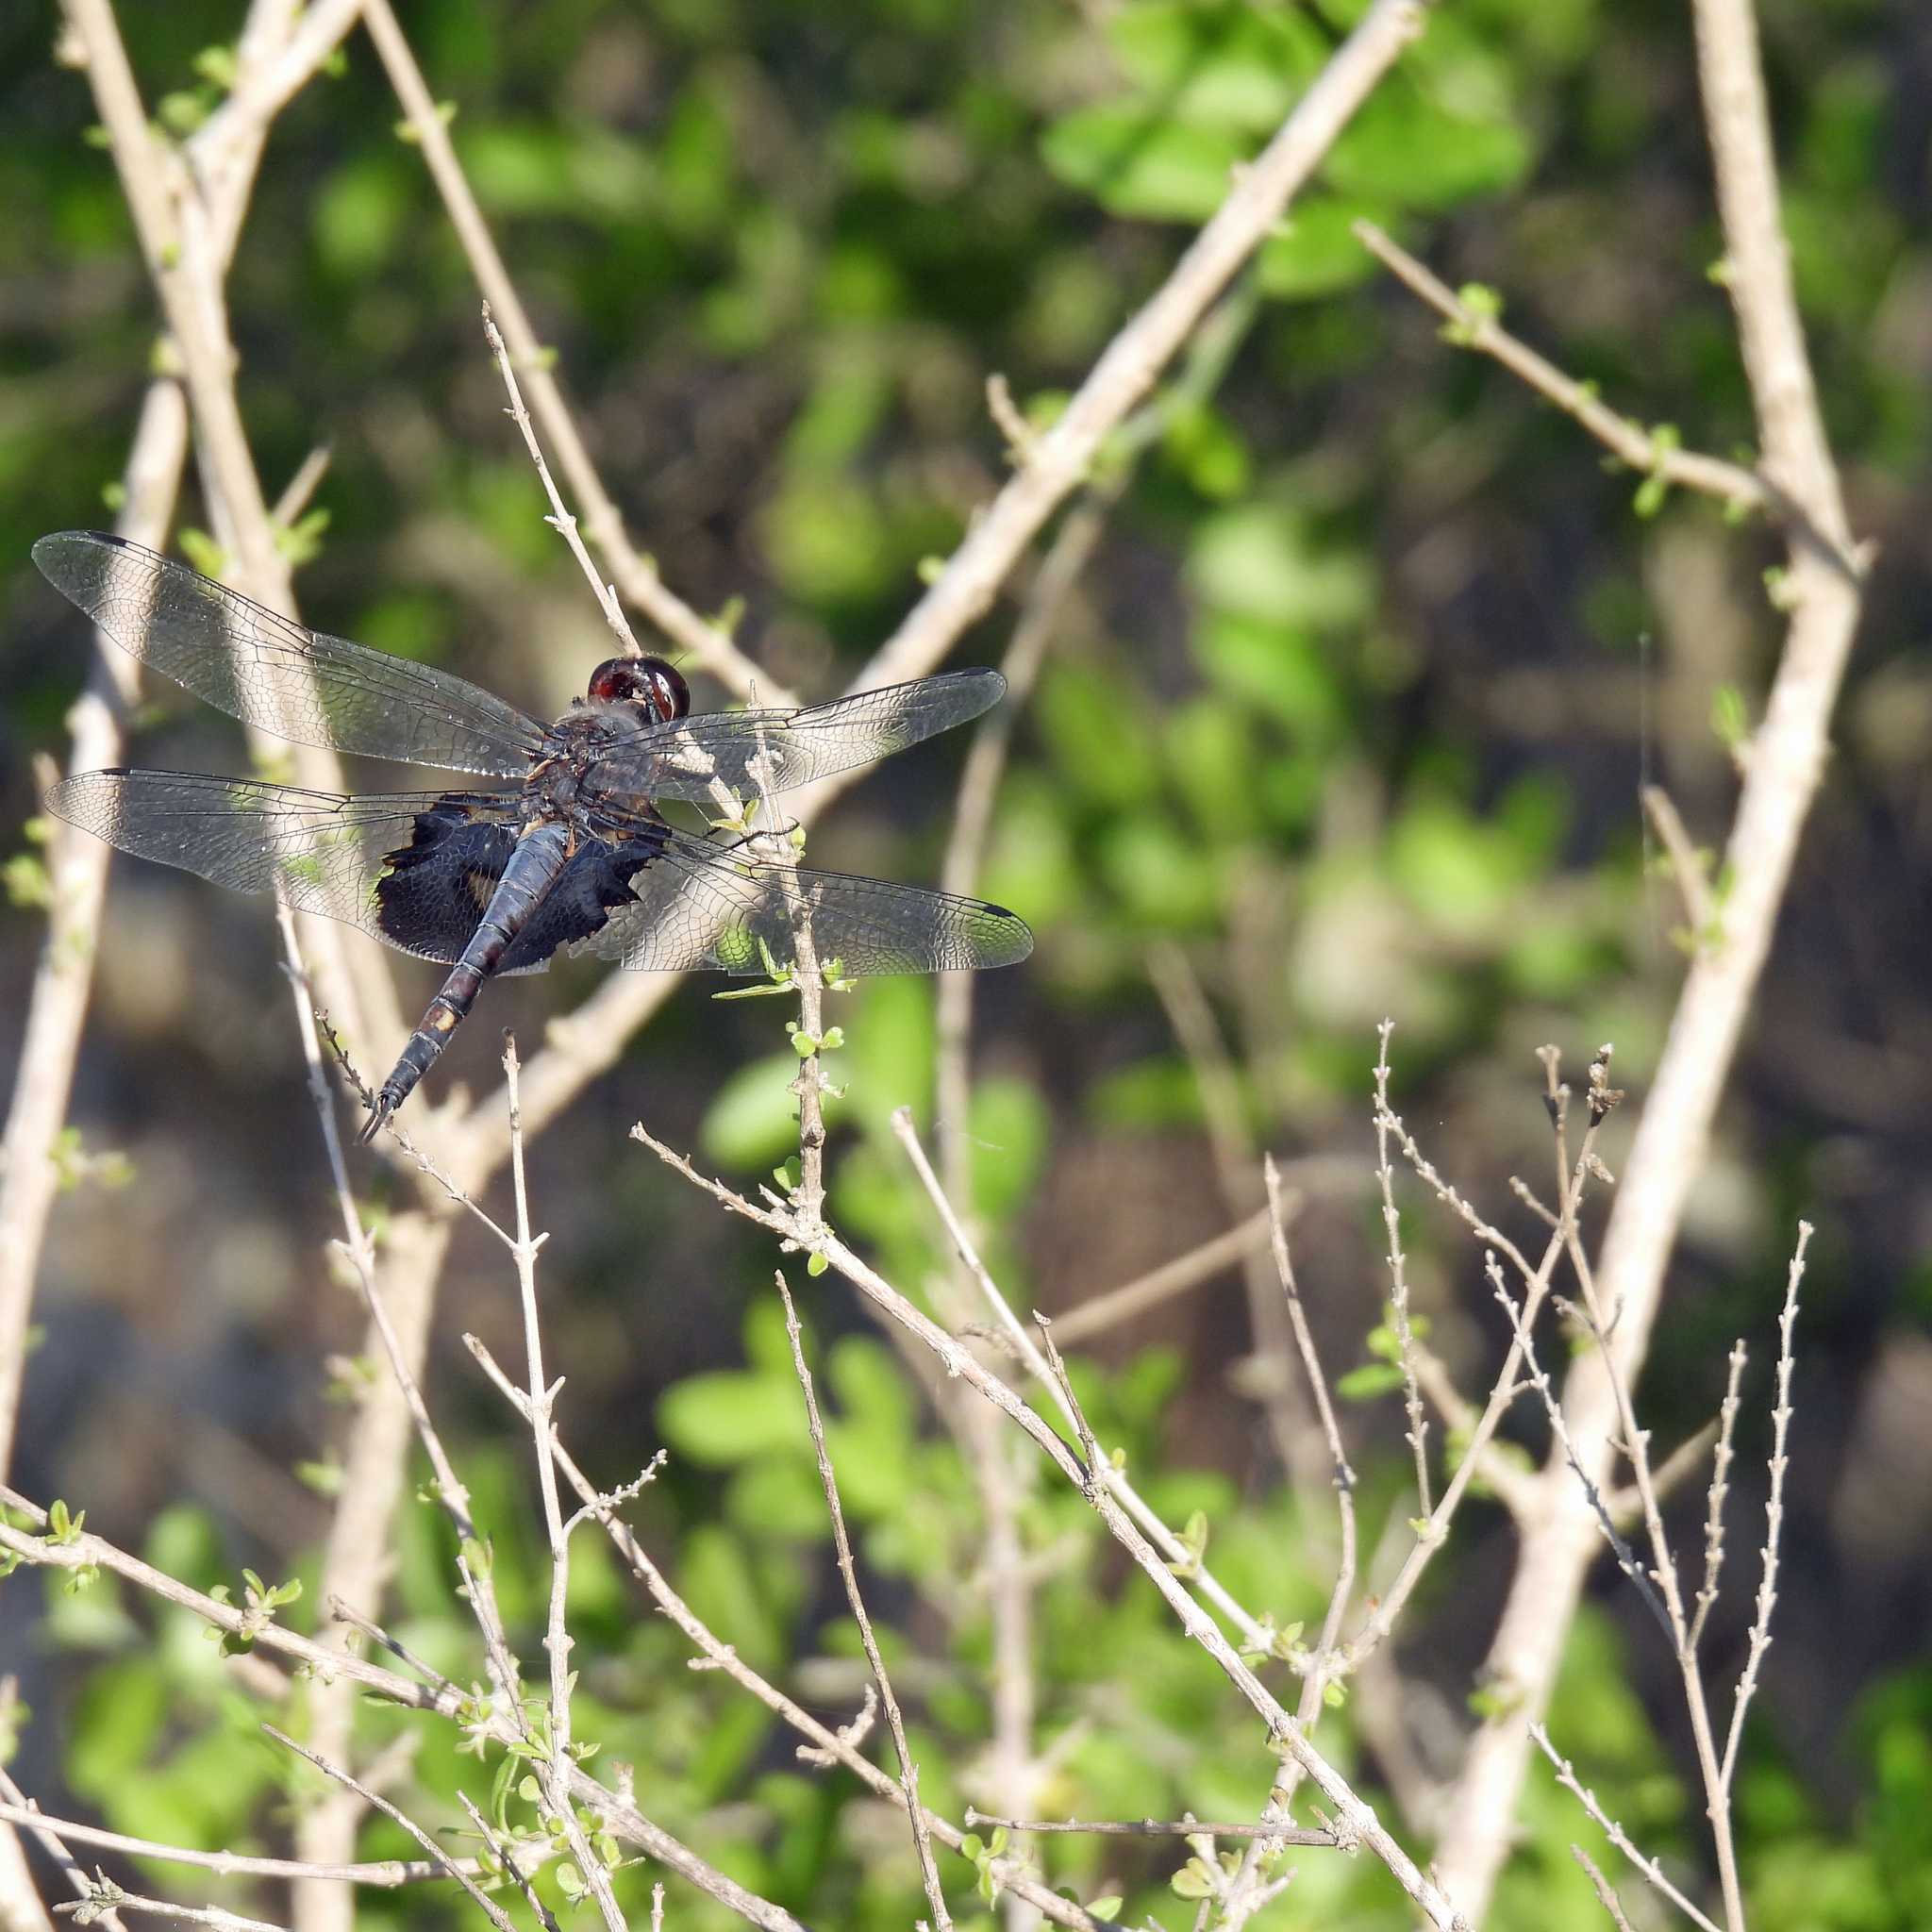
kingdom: Animalia
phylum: Arthropoda
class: Insecta
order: Odonata
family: Libellulidae
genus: Tramea
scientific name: Tramea lacerata
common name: Black saddlebags
